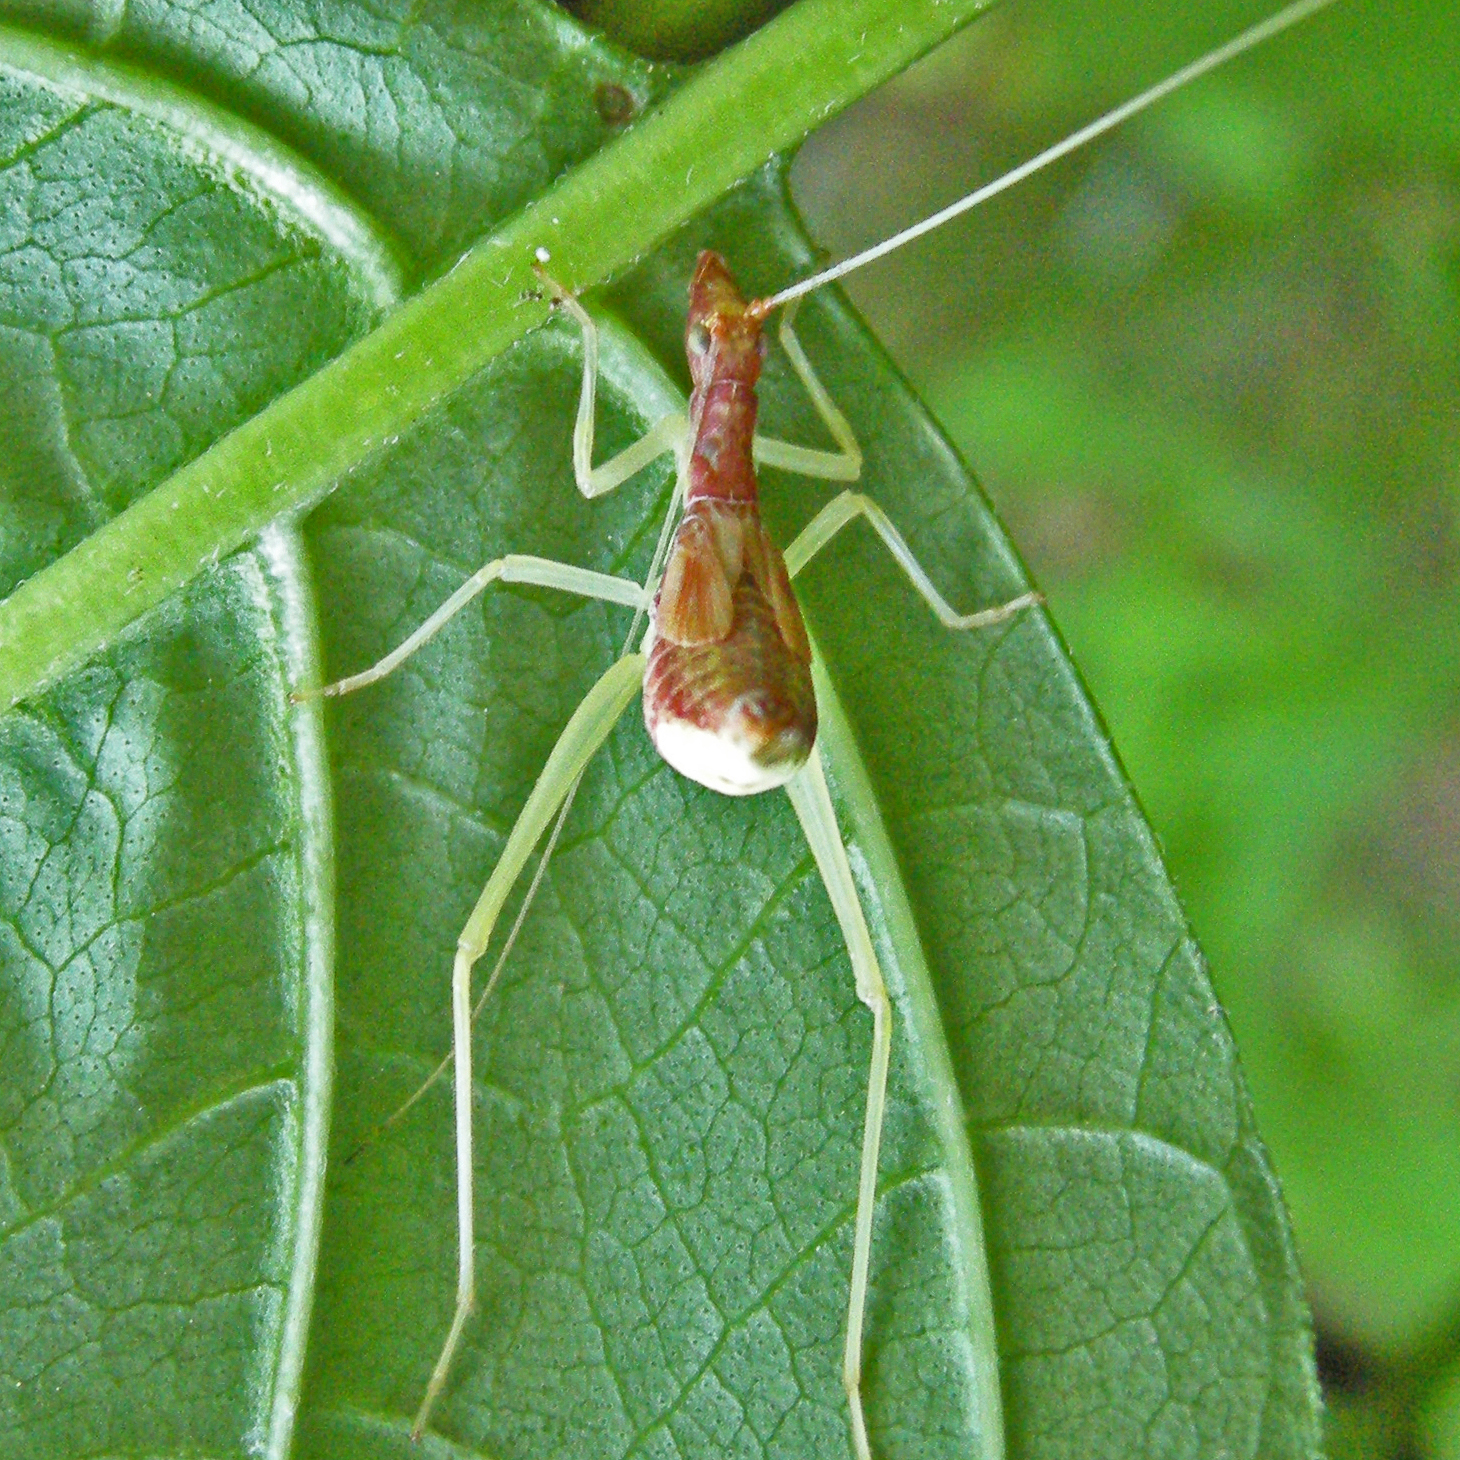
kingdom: Animalia
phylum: Arthropoda
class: Insecta
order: Orthoptera
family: Gryllidae
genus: Neoxabea
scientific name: Neoxabea bipunctata
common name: Two-spotted tree cricket
